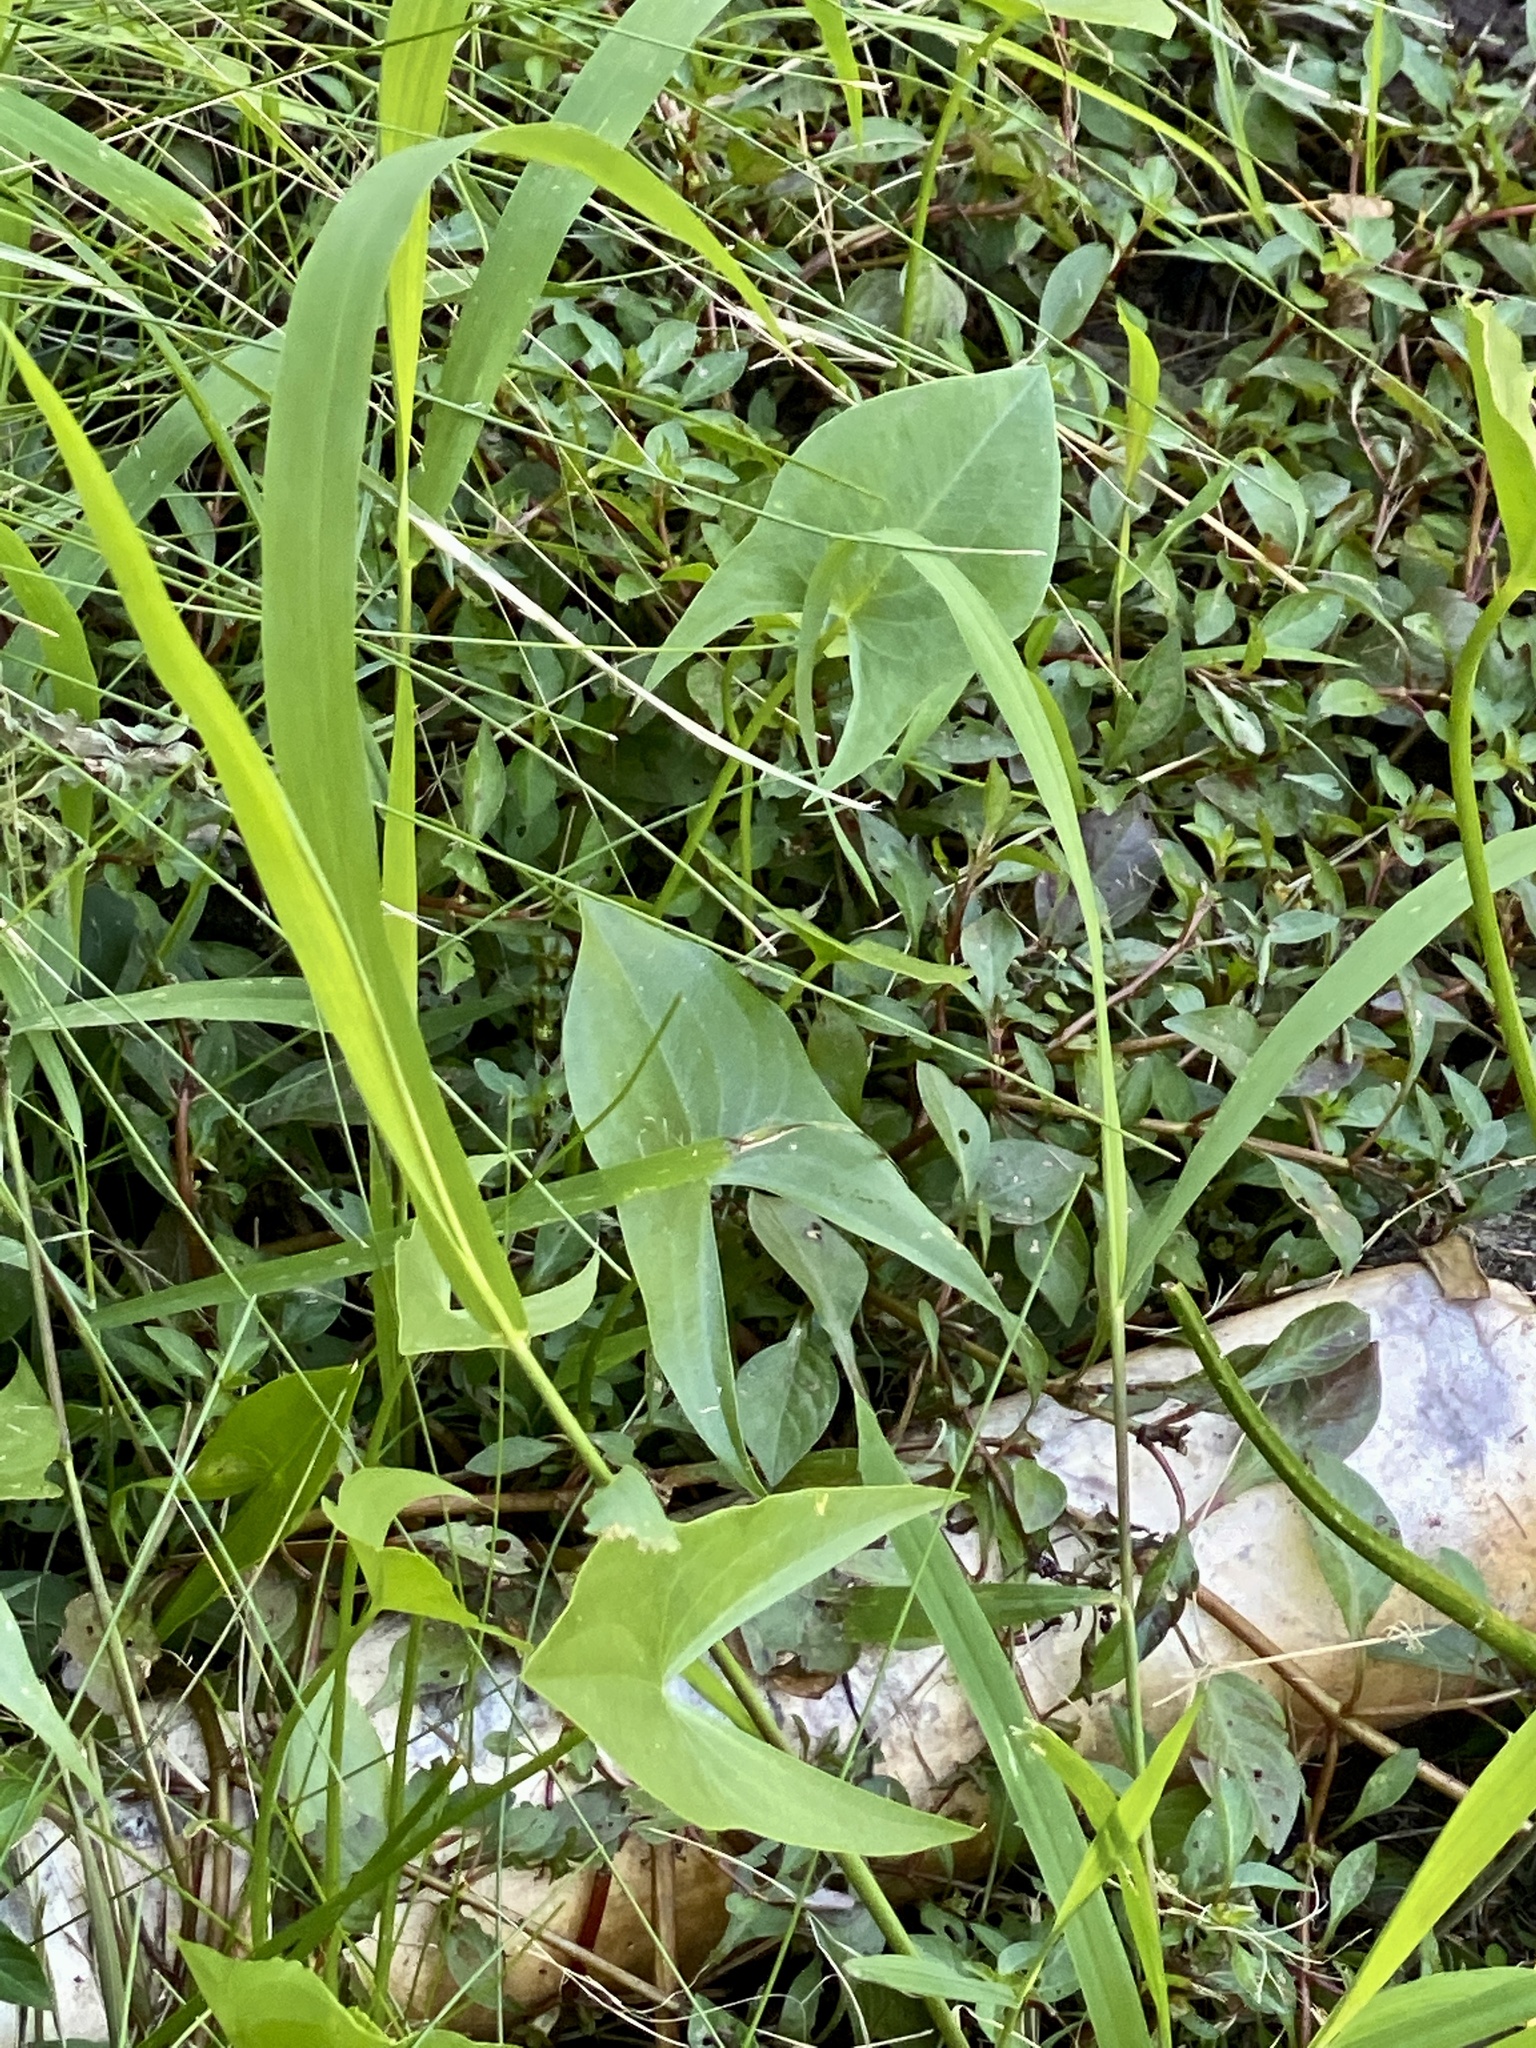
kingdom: Plantae
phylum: Tracheophyta
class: Liliopsida
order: Alismatales
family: Alismataceae
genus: Sagittaria
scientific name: Sagittaria latifolia
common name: Duck-potato
